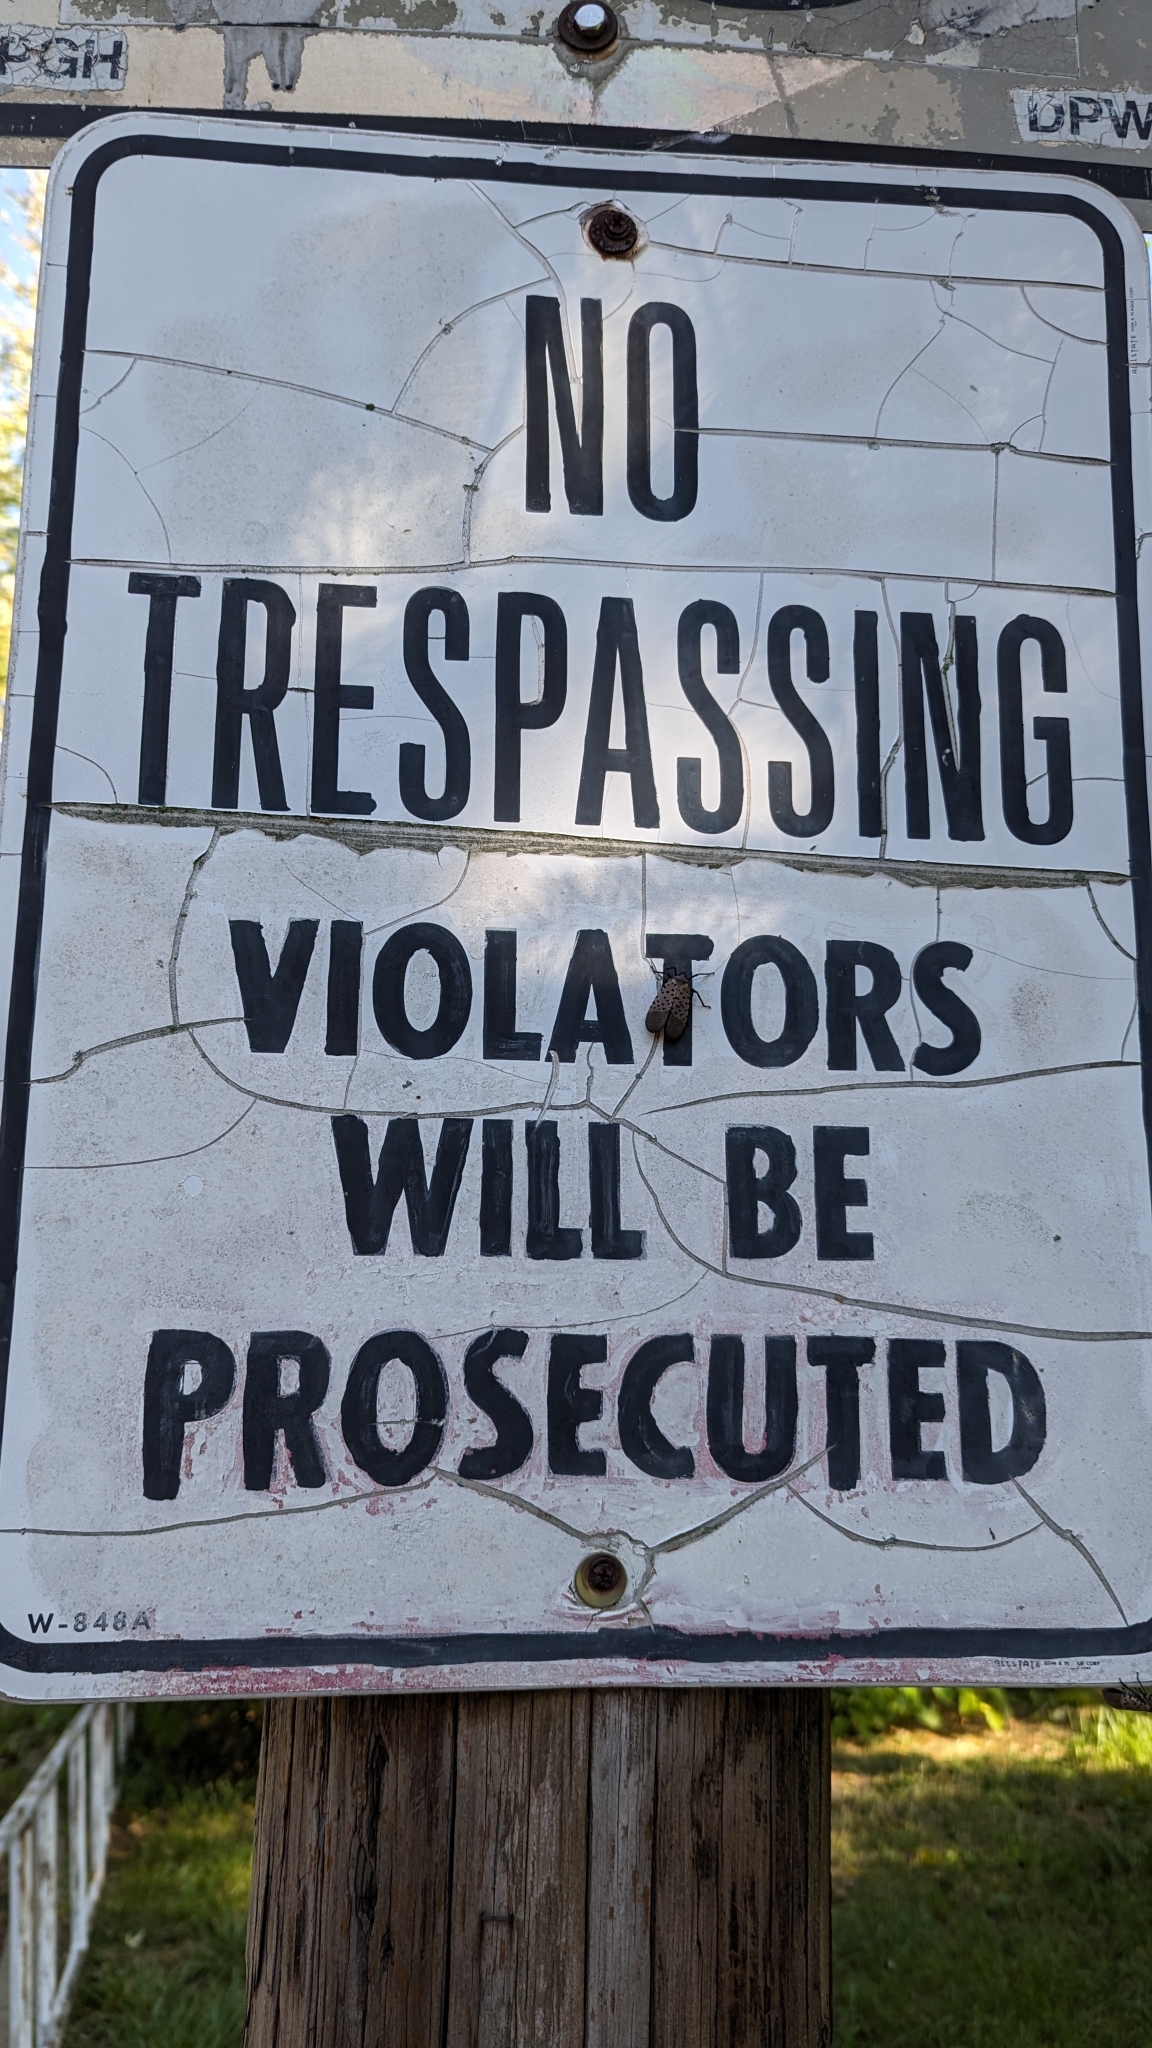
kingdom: Animalia
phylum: Arthropoda
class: Insecta
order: Hemiptera
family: Fulgoridae
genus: Lycorma
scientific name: Lycorma delicatula
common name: Spotted lanternfly
